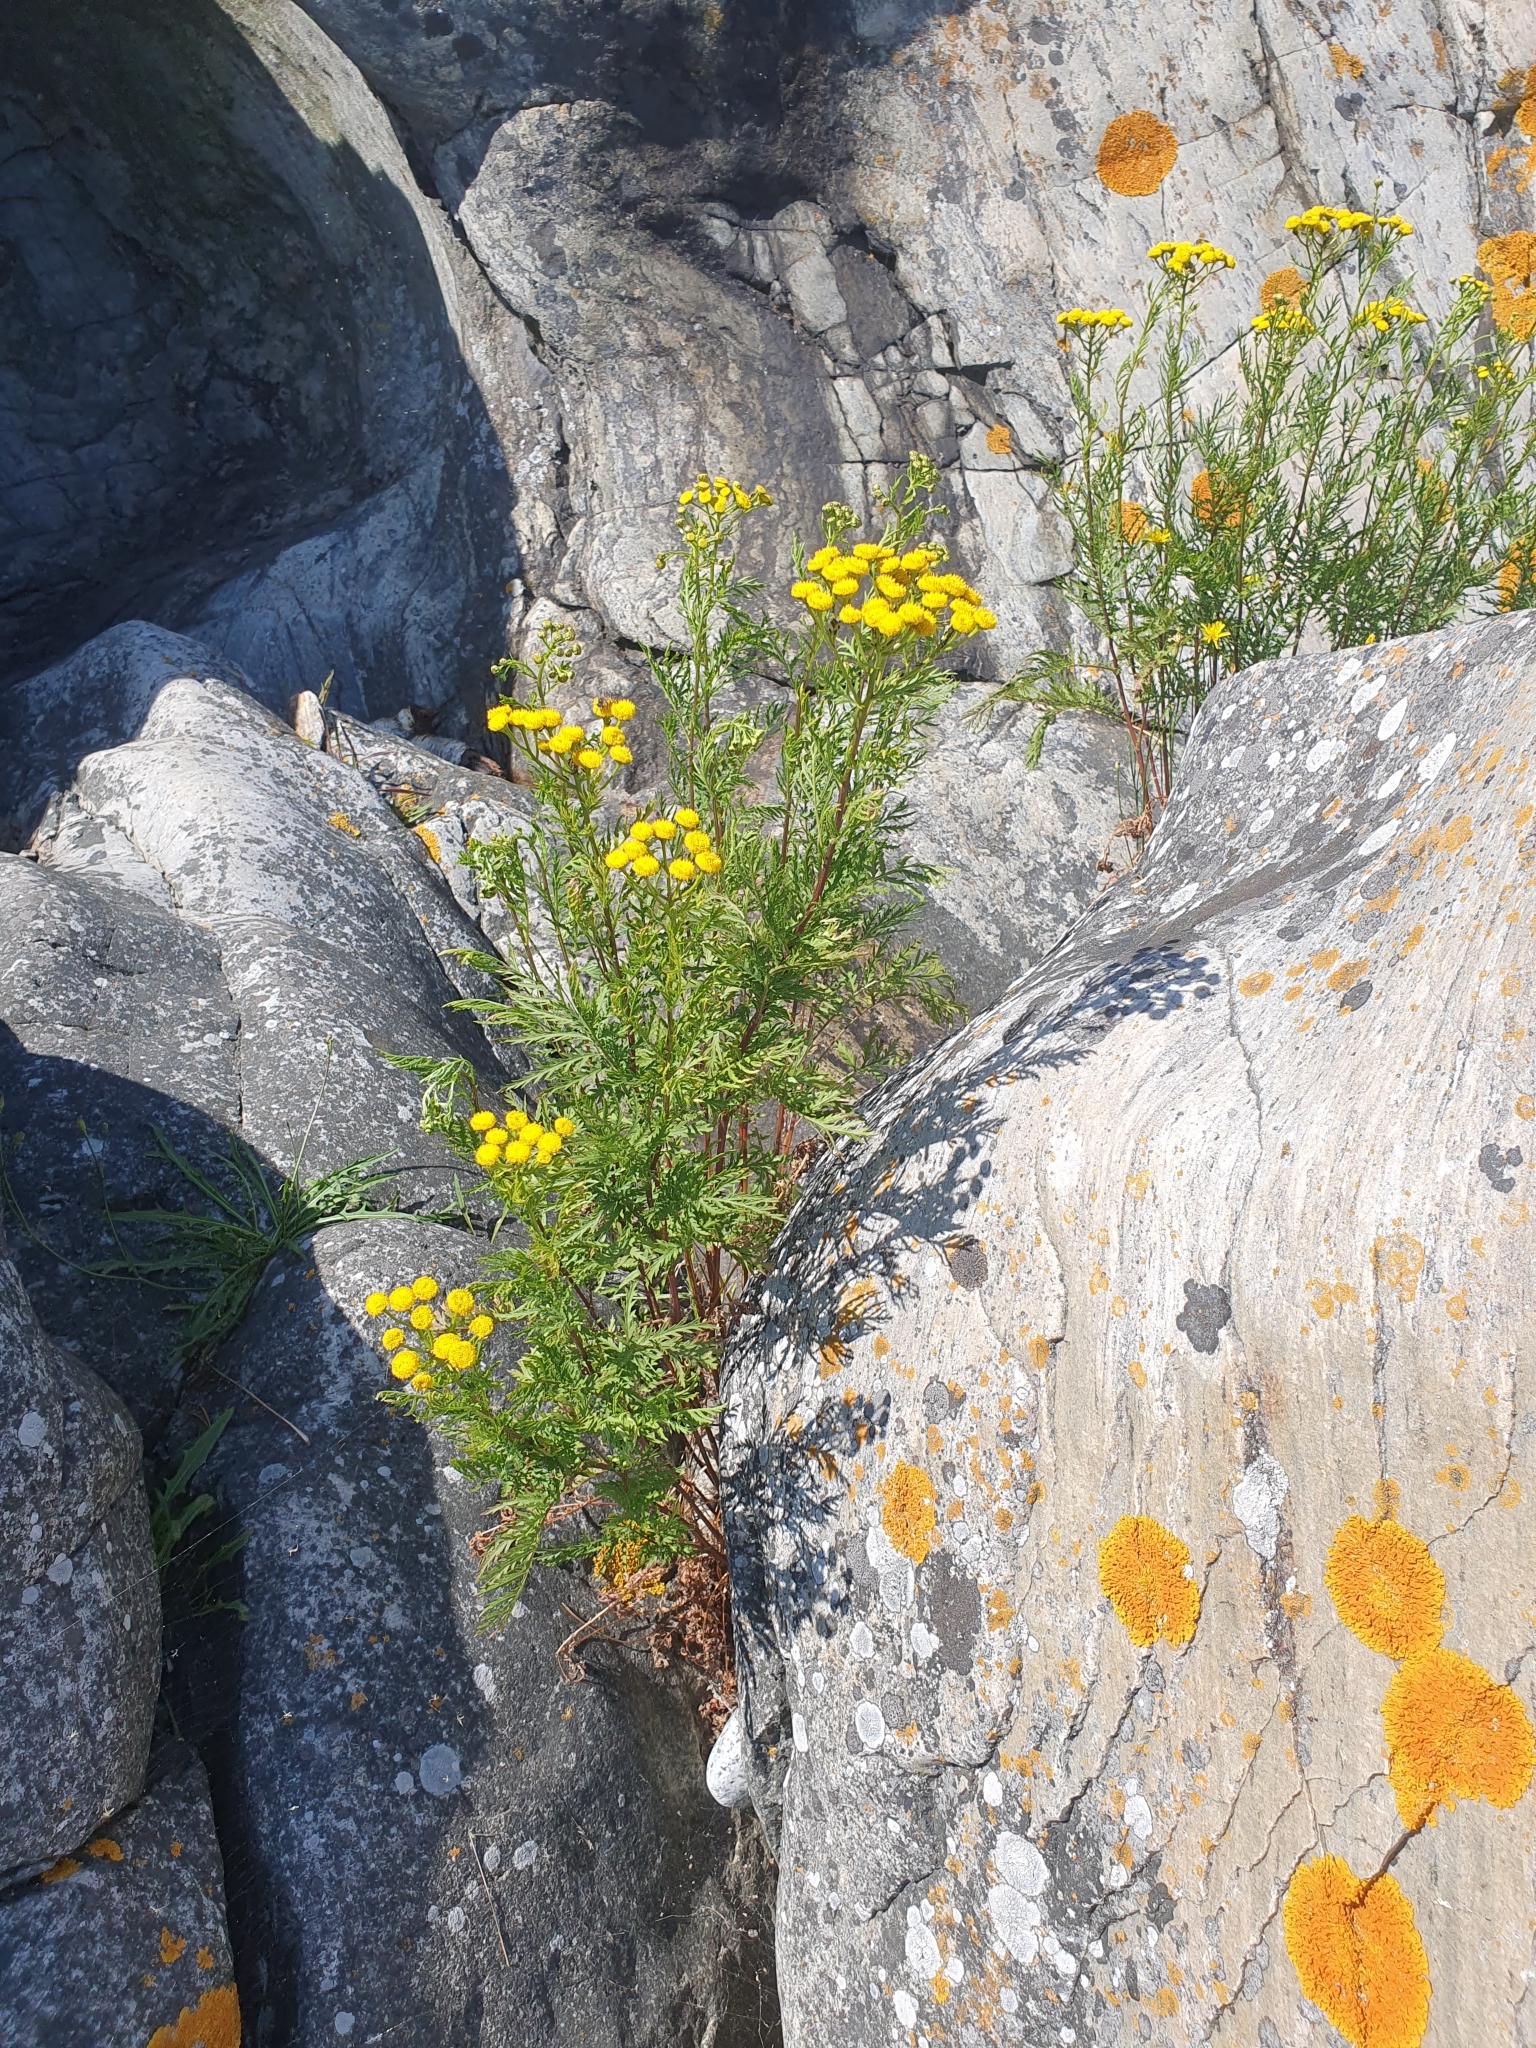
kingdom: Plantae
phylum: Tracheophyta
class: Magnoliopsida
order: Asterales
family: Asteraceae
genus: Tanacetum
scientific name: Tanacetum vulgare
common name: Common tansy
